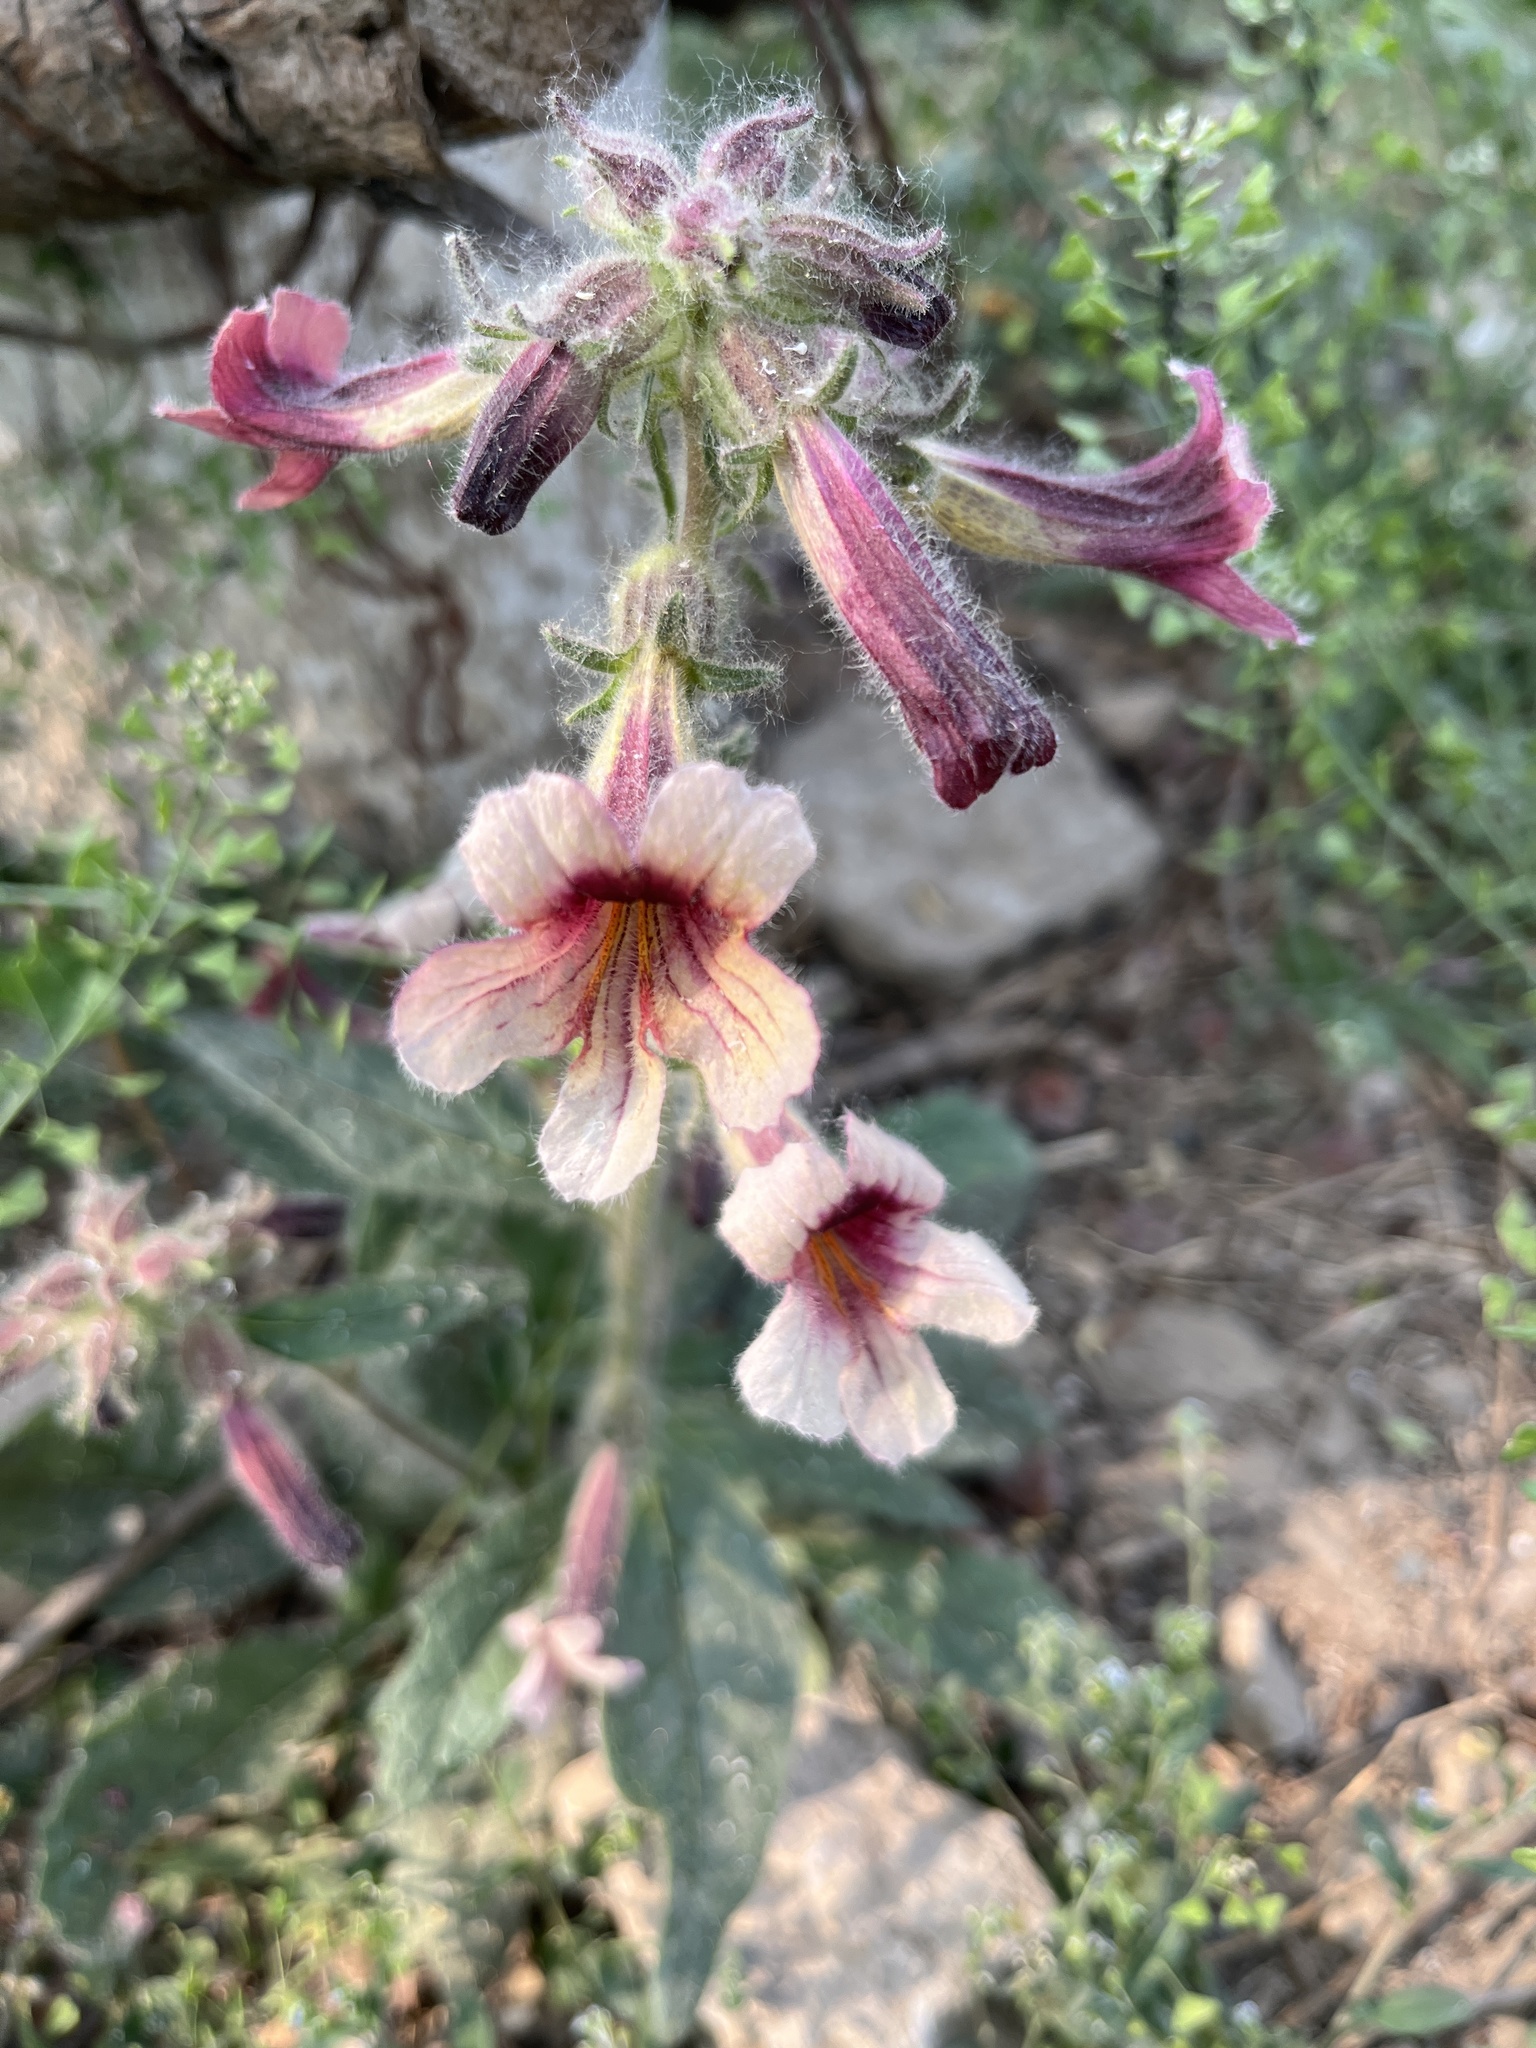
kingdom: Plantae
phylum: Tracheophyta
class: Magnoliopsida
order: Lamiales
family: Rehmanniaceae
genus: Rehmannia
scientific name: Rehmannia glutinosa
